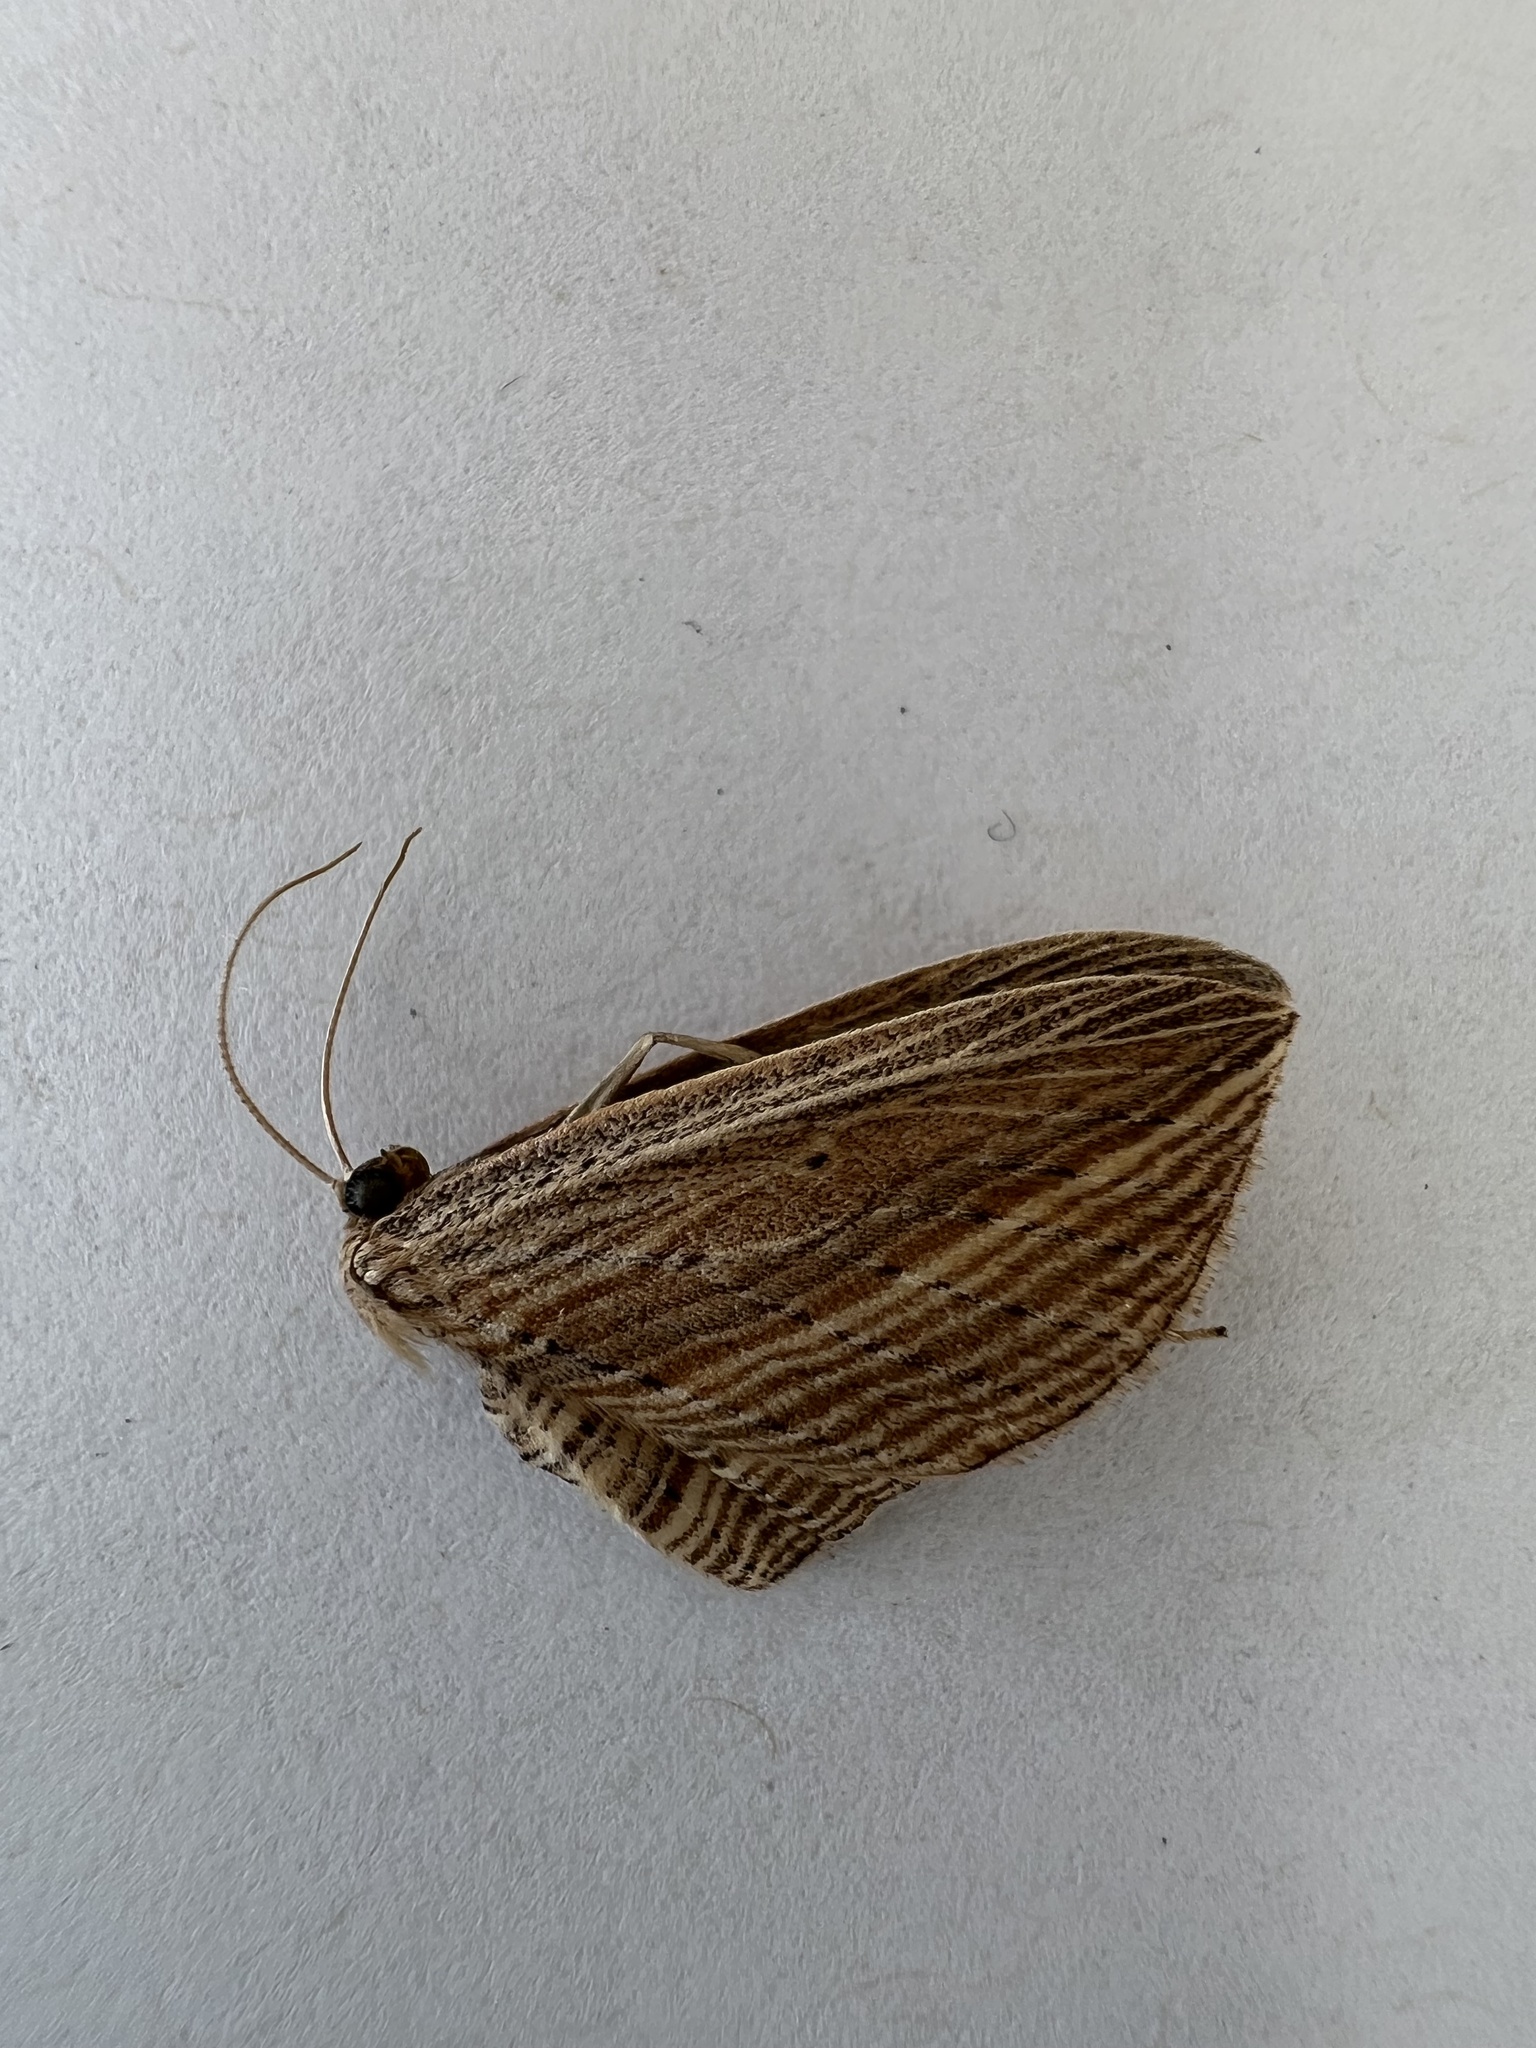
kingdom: Animalia
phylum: Arthropoda
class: Insecta
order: Lepidoptera
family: Geometridae
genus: Epiphryne
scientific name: Epiphryne verriculata
